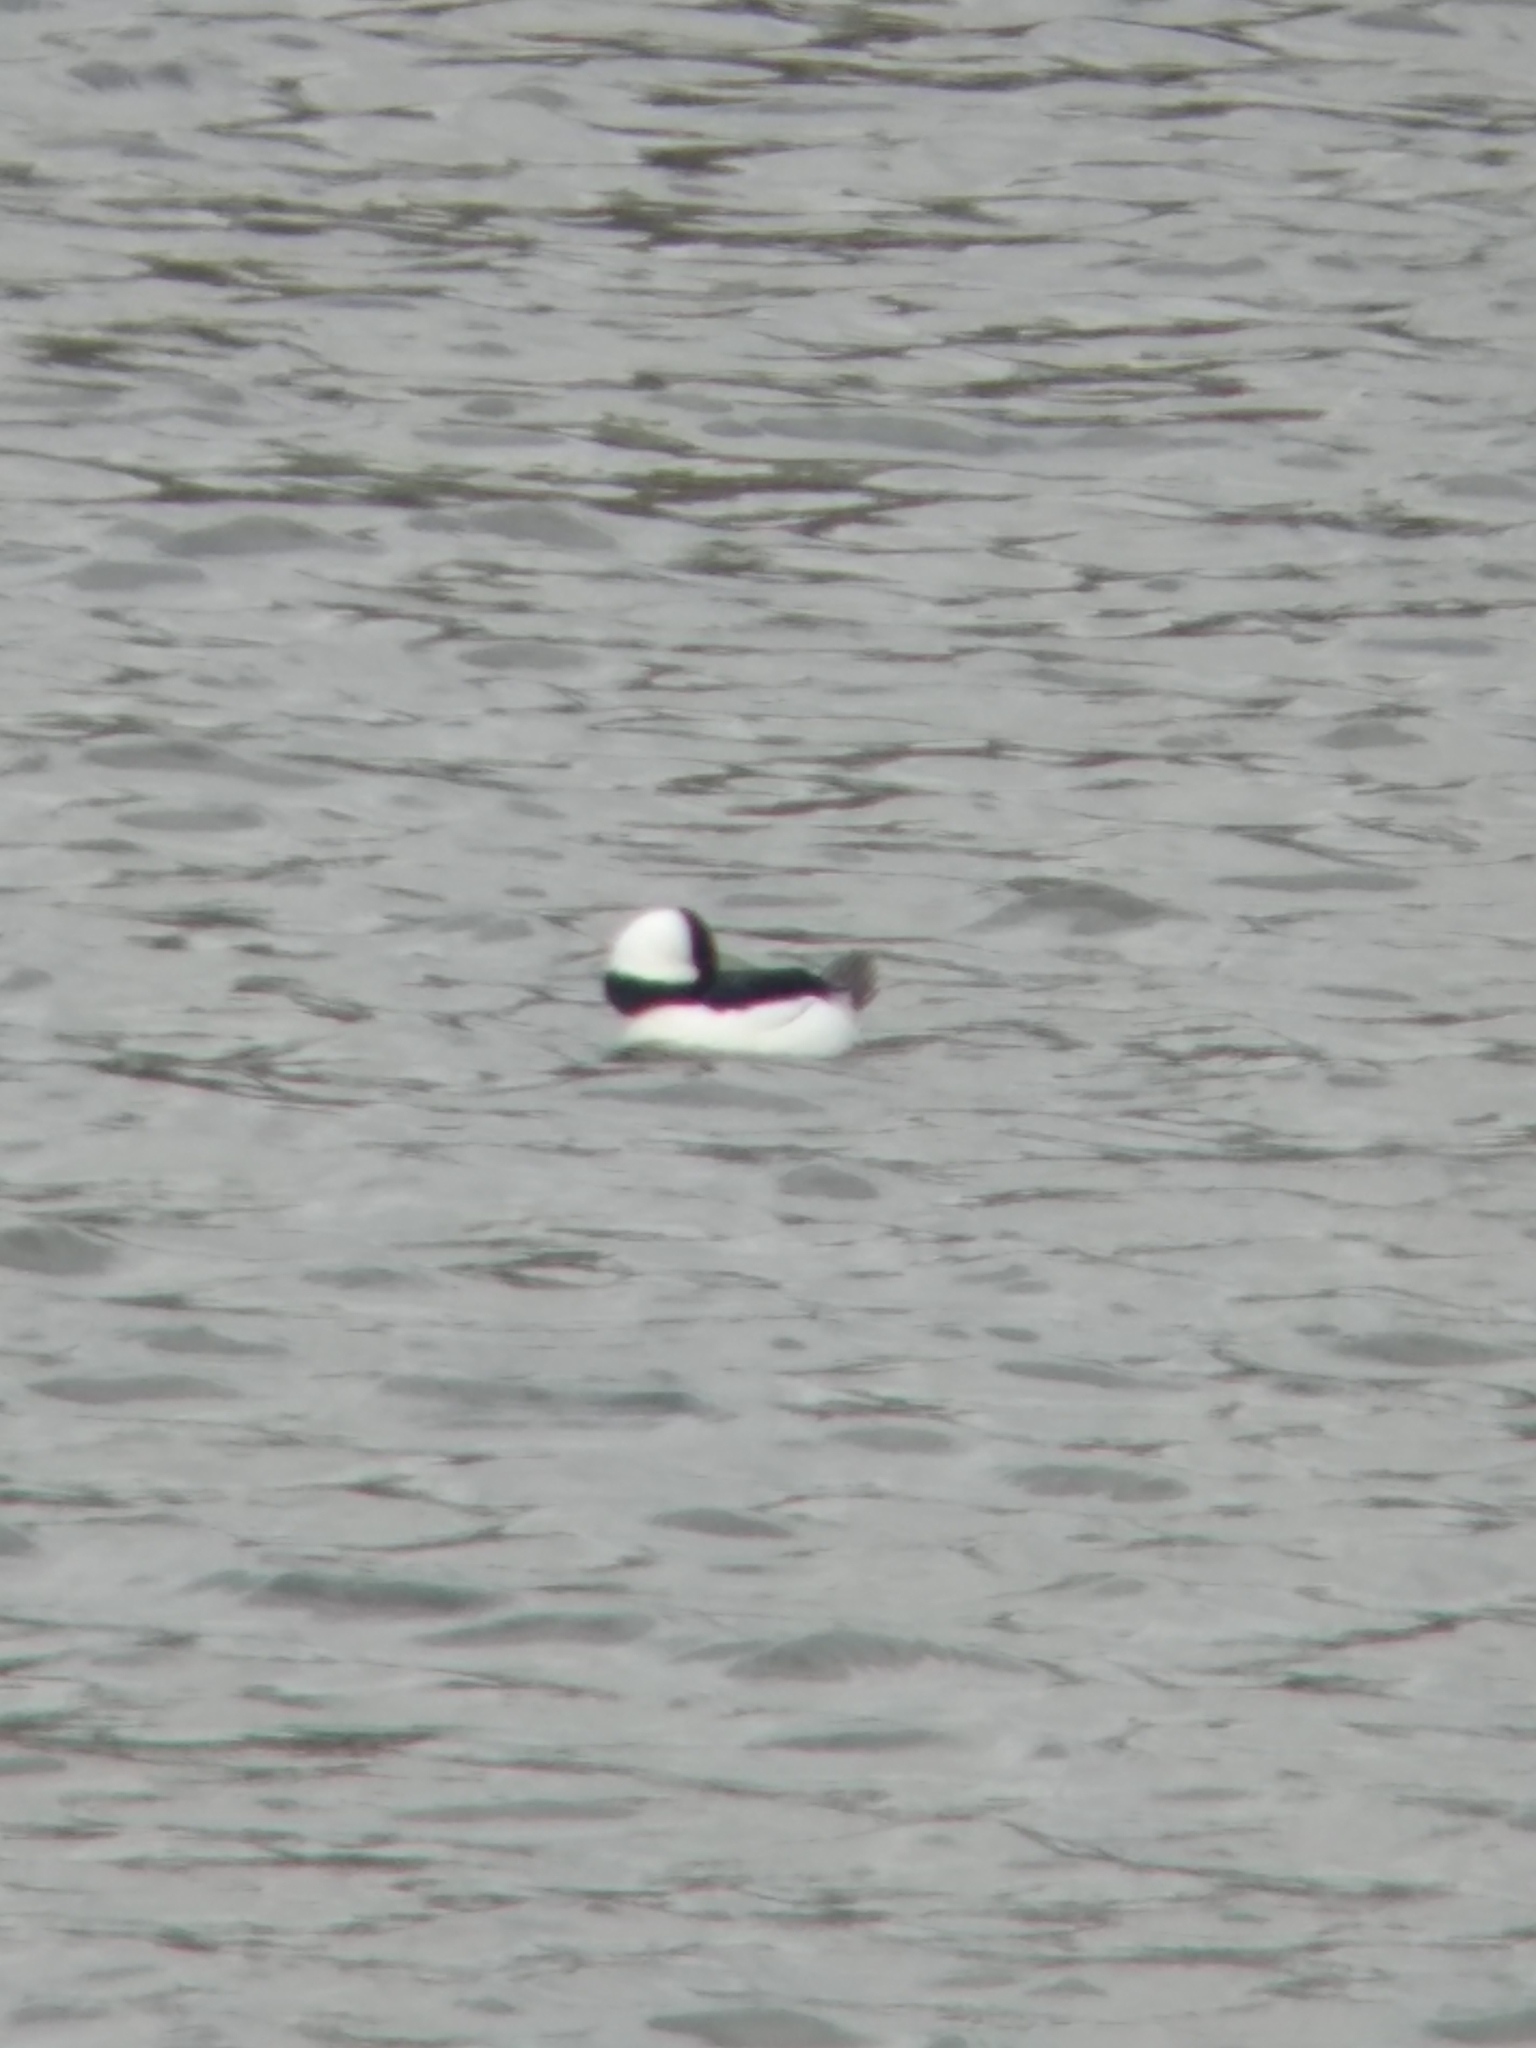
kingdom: Animalia
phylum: Chordata
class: Aves
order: Anseriformes
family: Anatidae
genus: Bucephala
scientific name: Bucephala albeola
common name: Bufflehead
